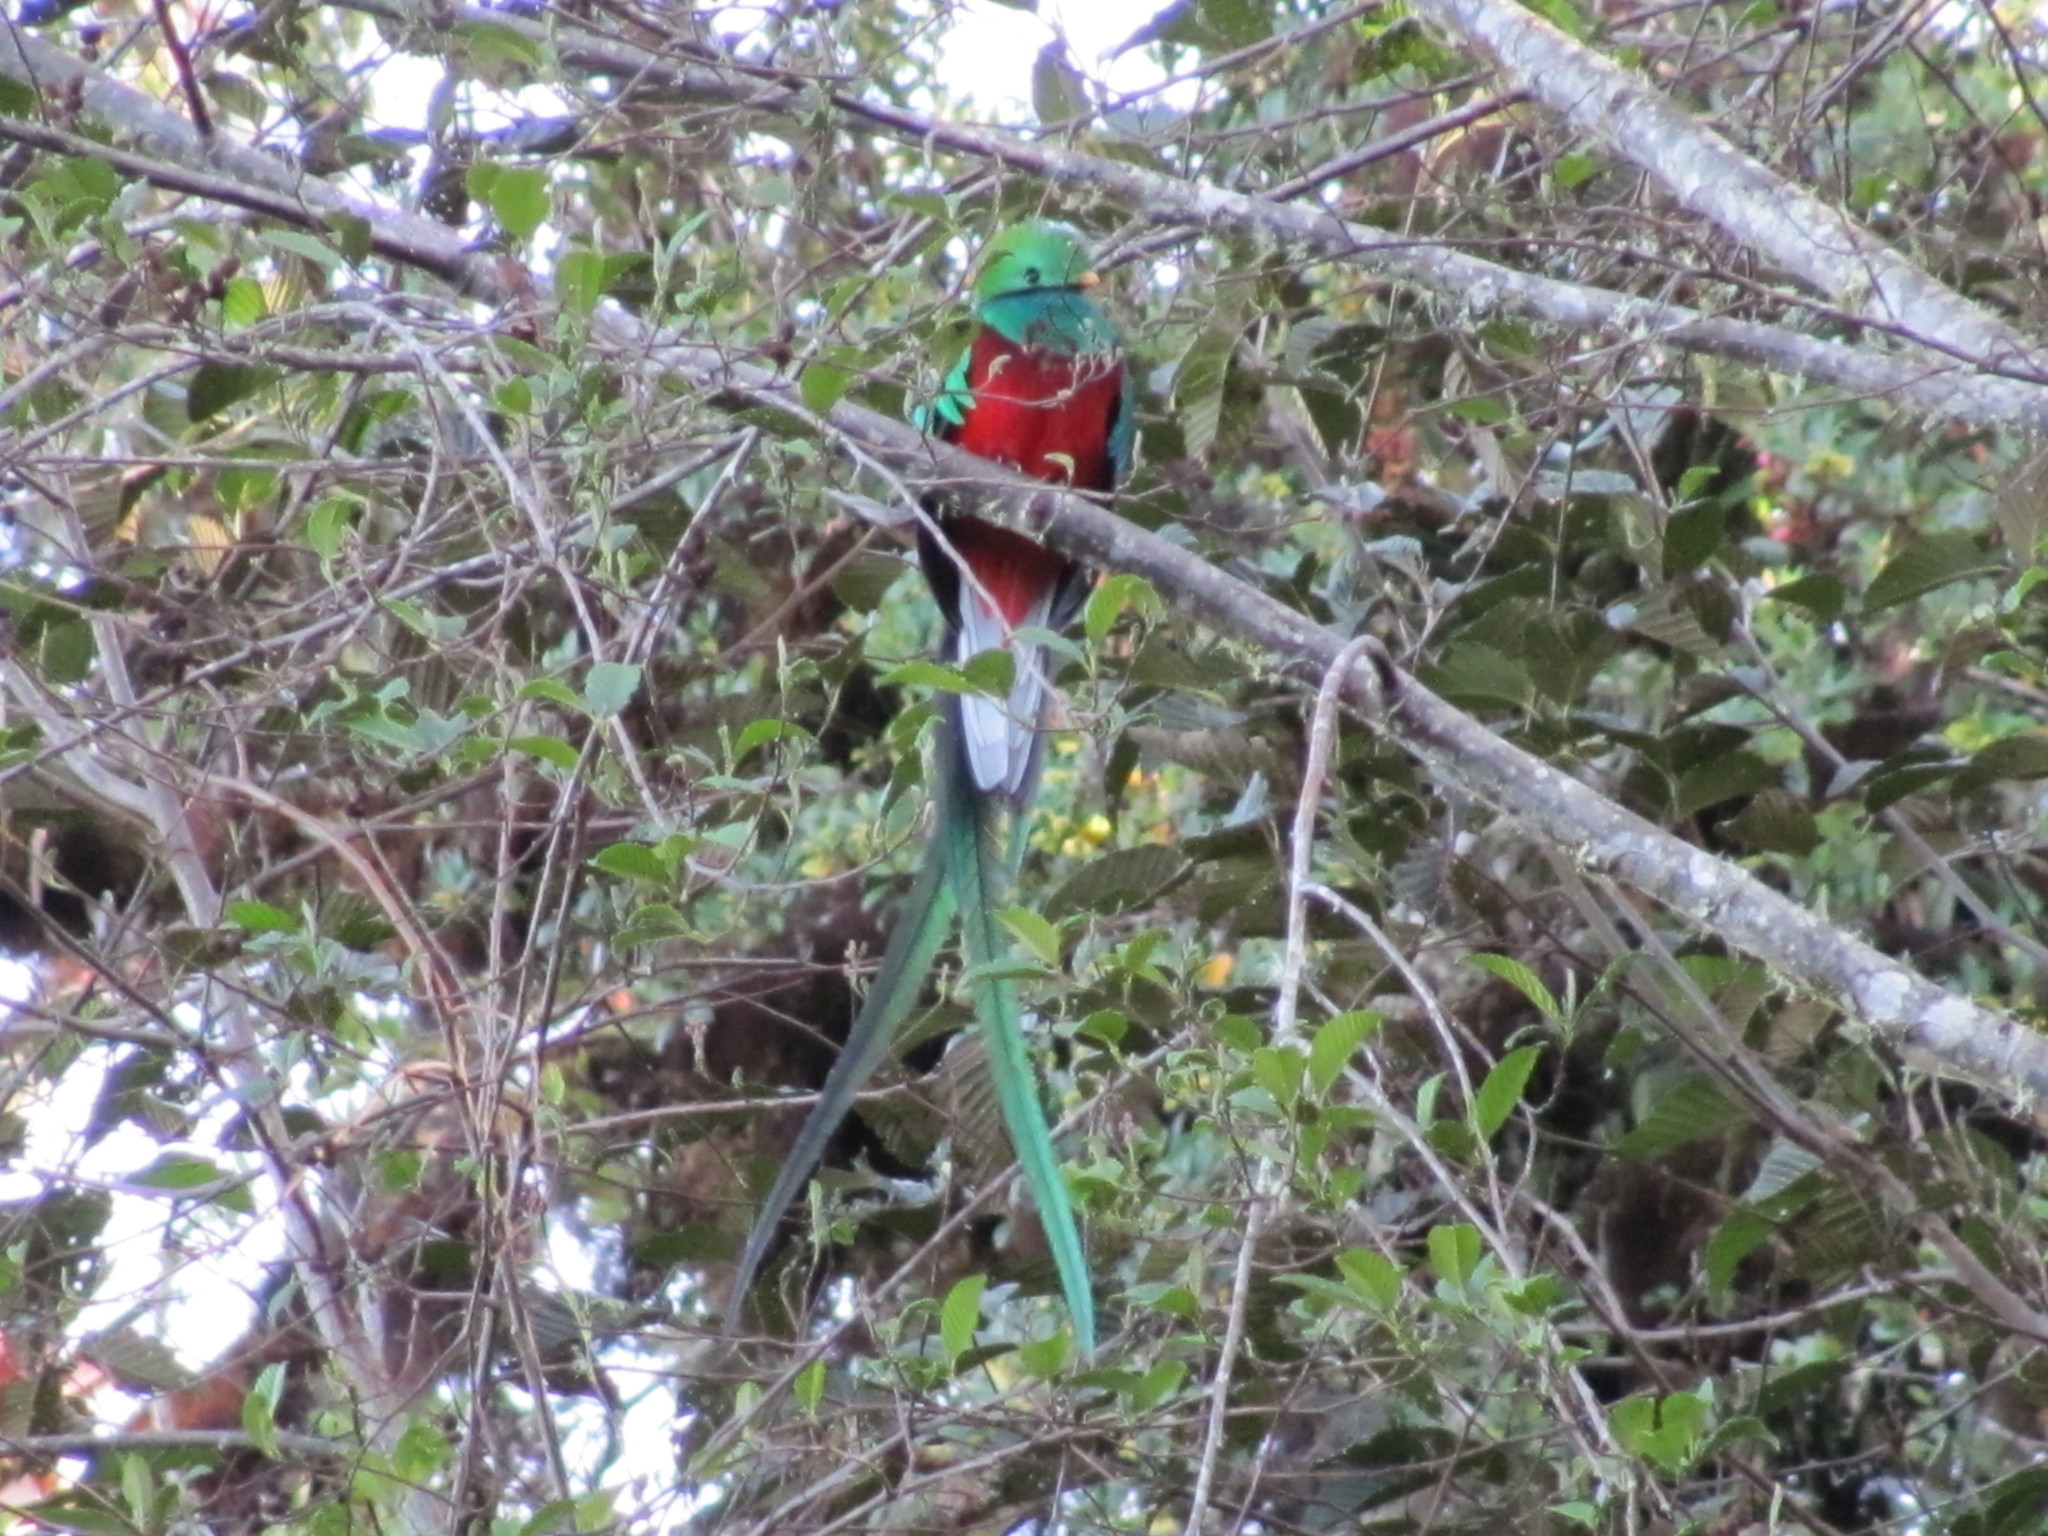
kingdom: Animalia
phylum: Chordata
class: Aves
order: Trogoniformes
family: Trogonidae
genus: Pharomachrus
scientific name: Pharomachrus mocinno
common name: Resplendent quetzal
